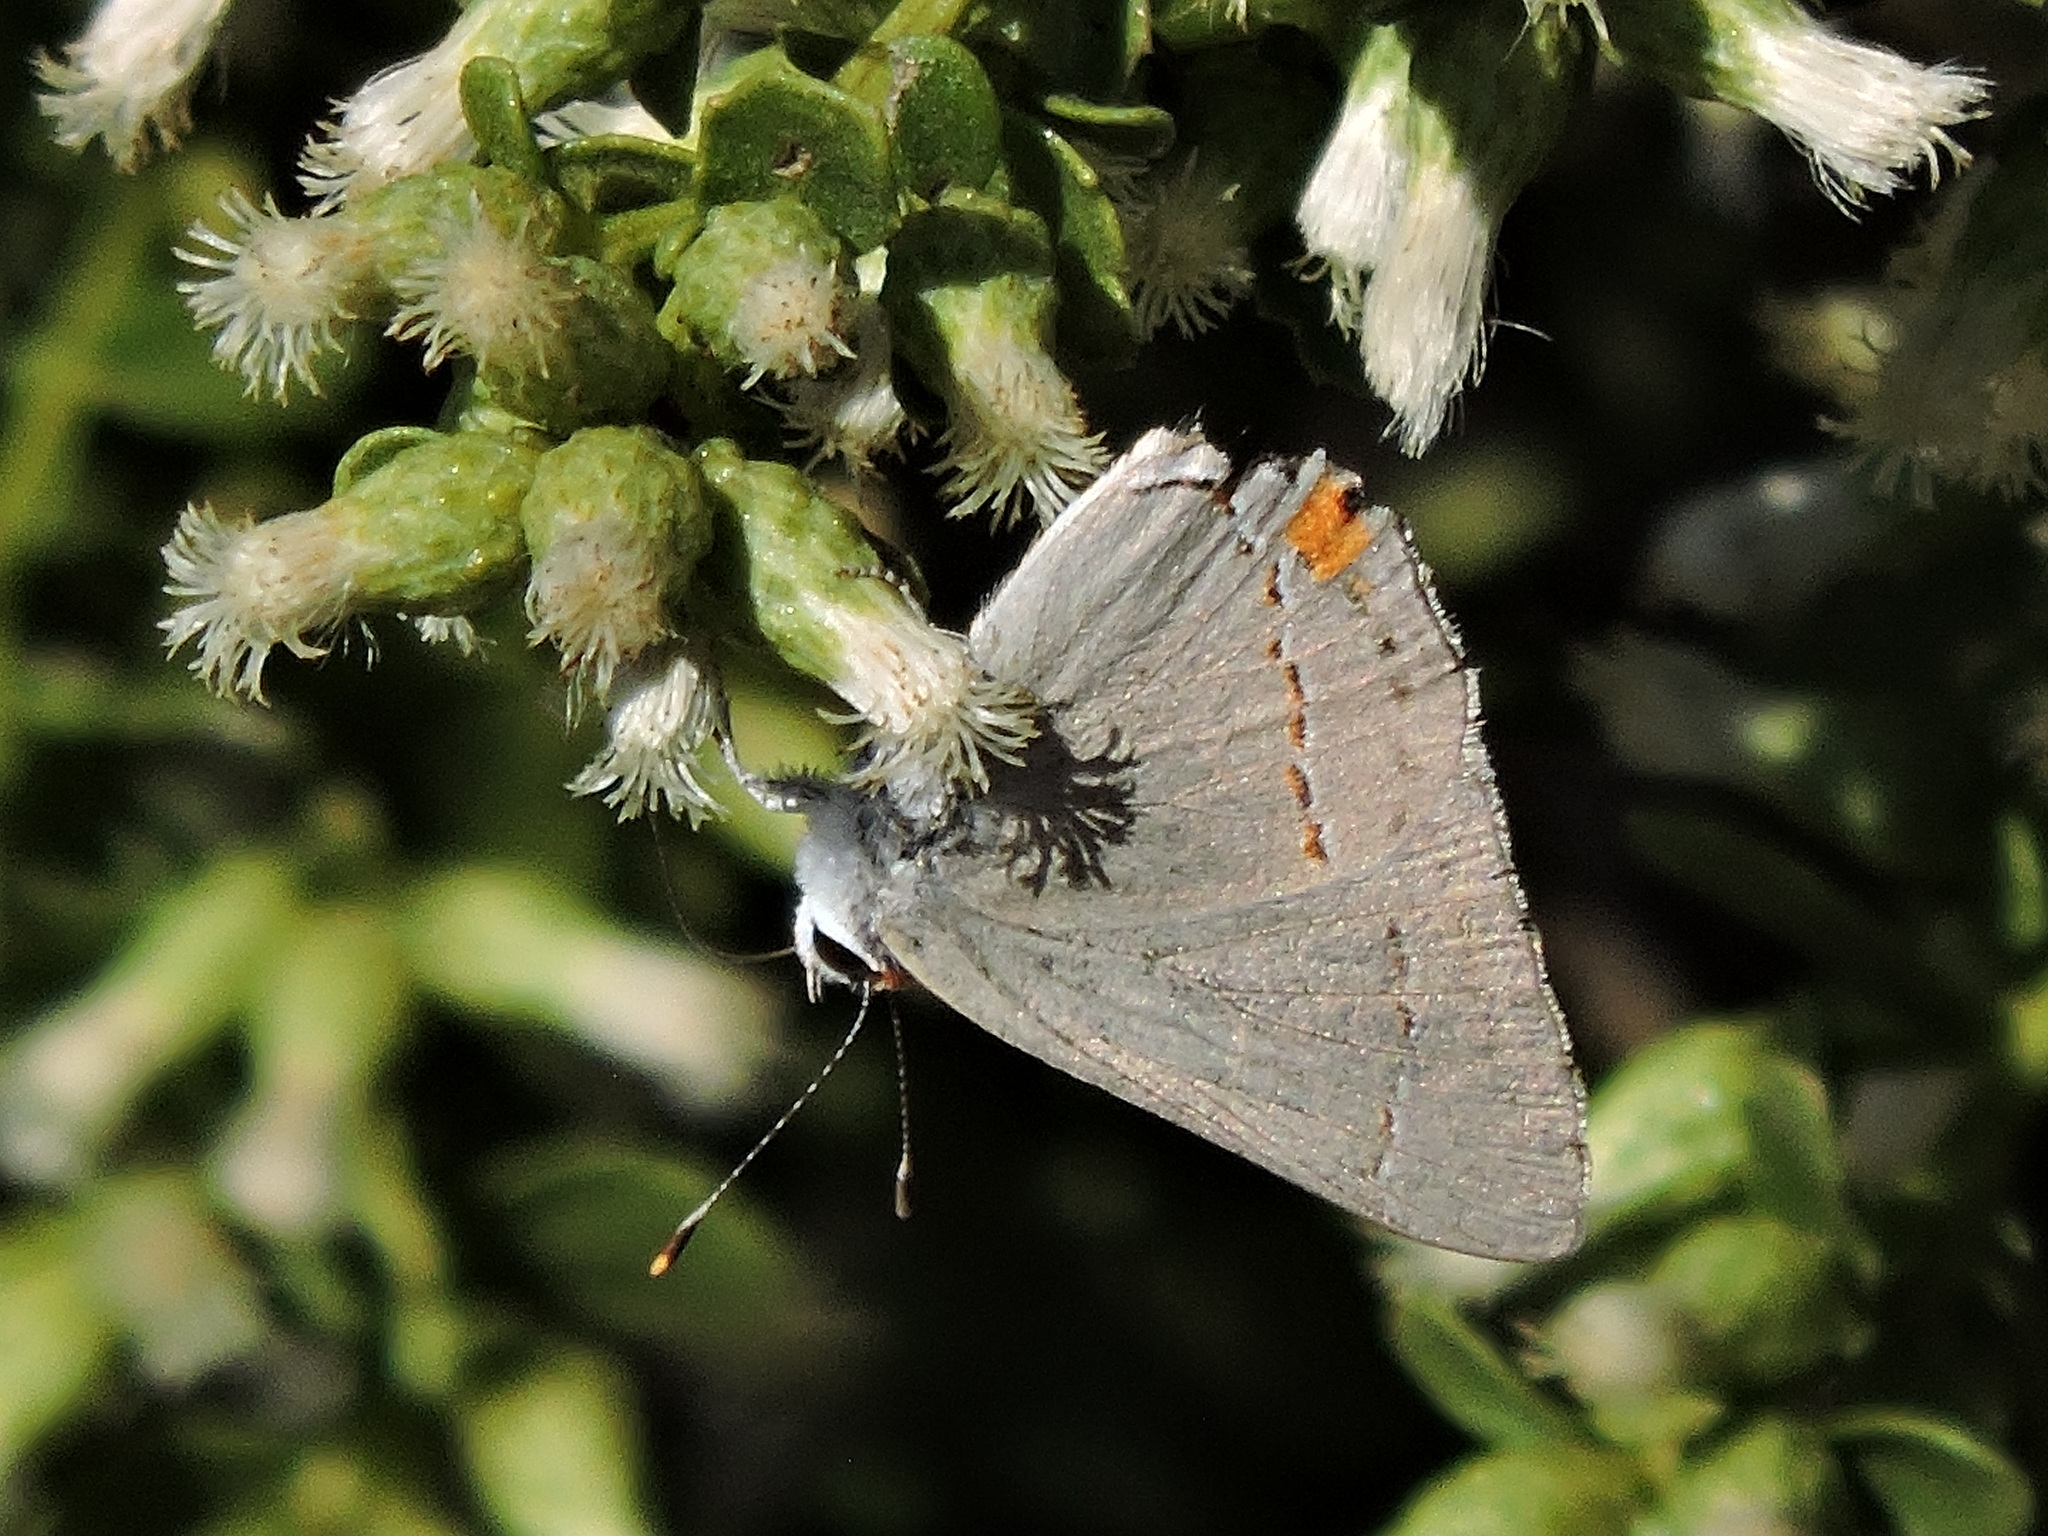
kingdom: Animalia
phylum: Arthropoda
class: Insecta
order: Lepidoptera
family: Lycaenidae
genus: Strymon
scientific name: Strymon melinus
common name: Gray hairstreak
